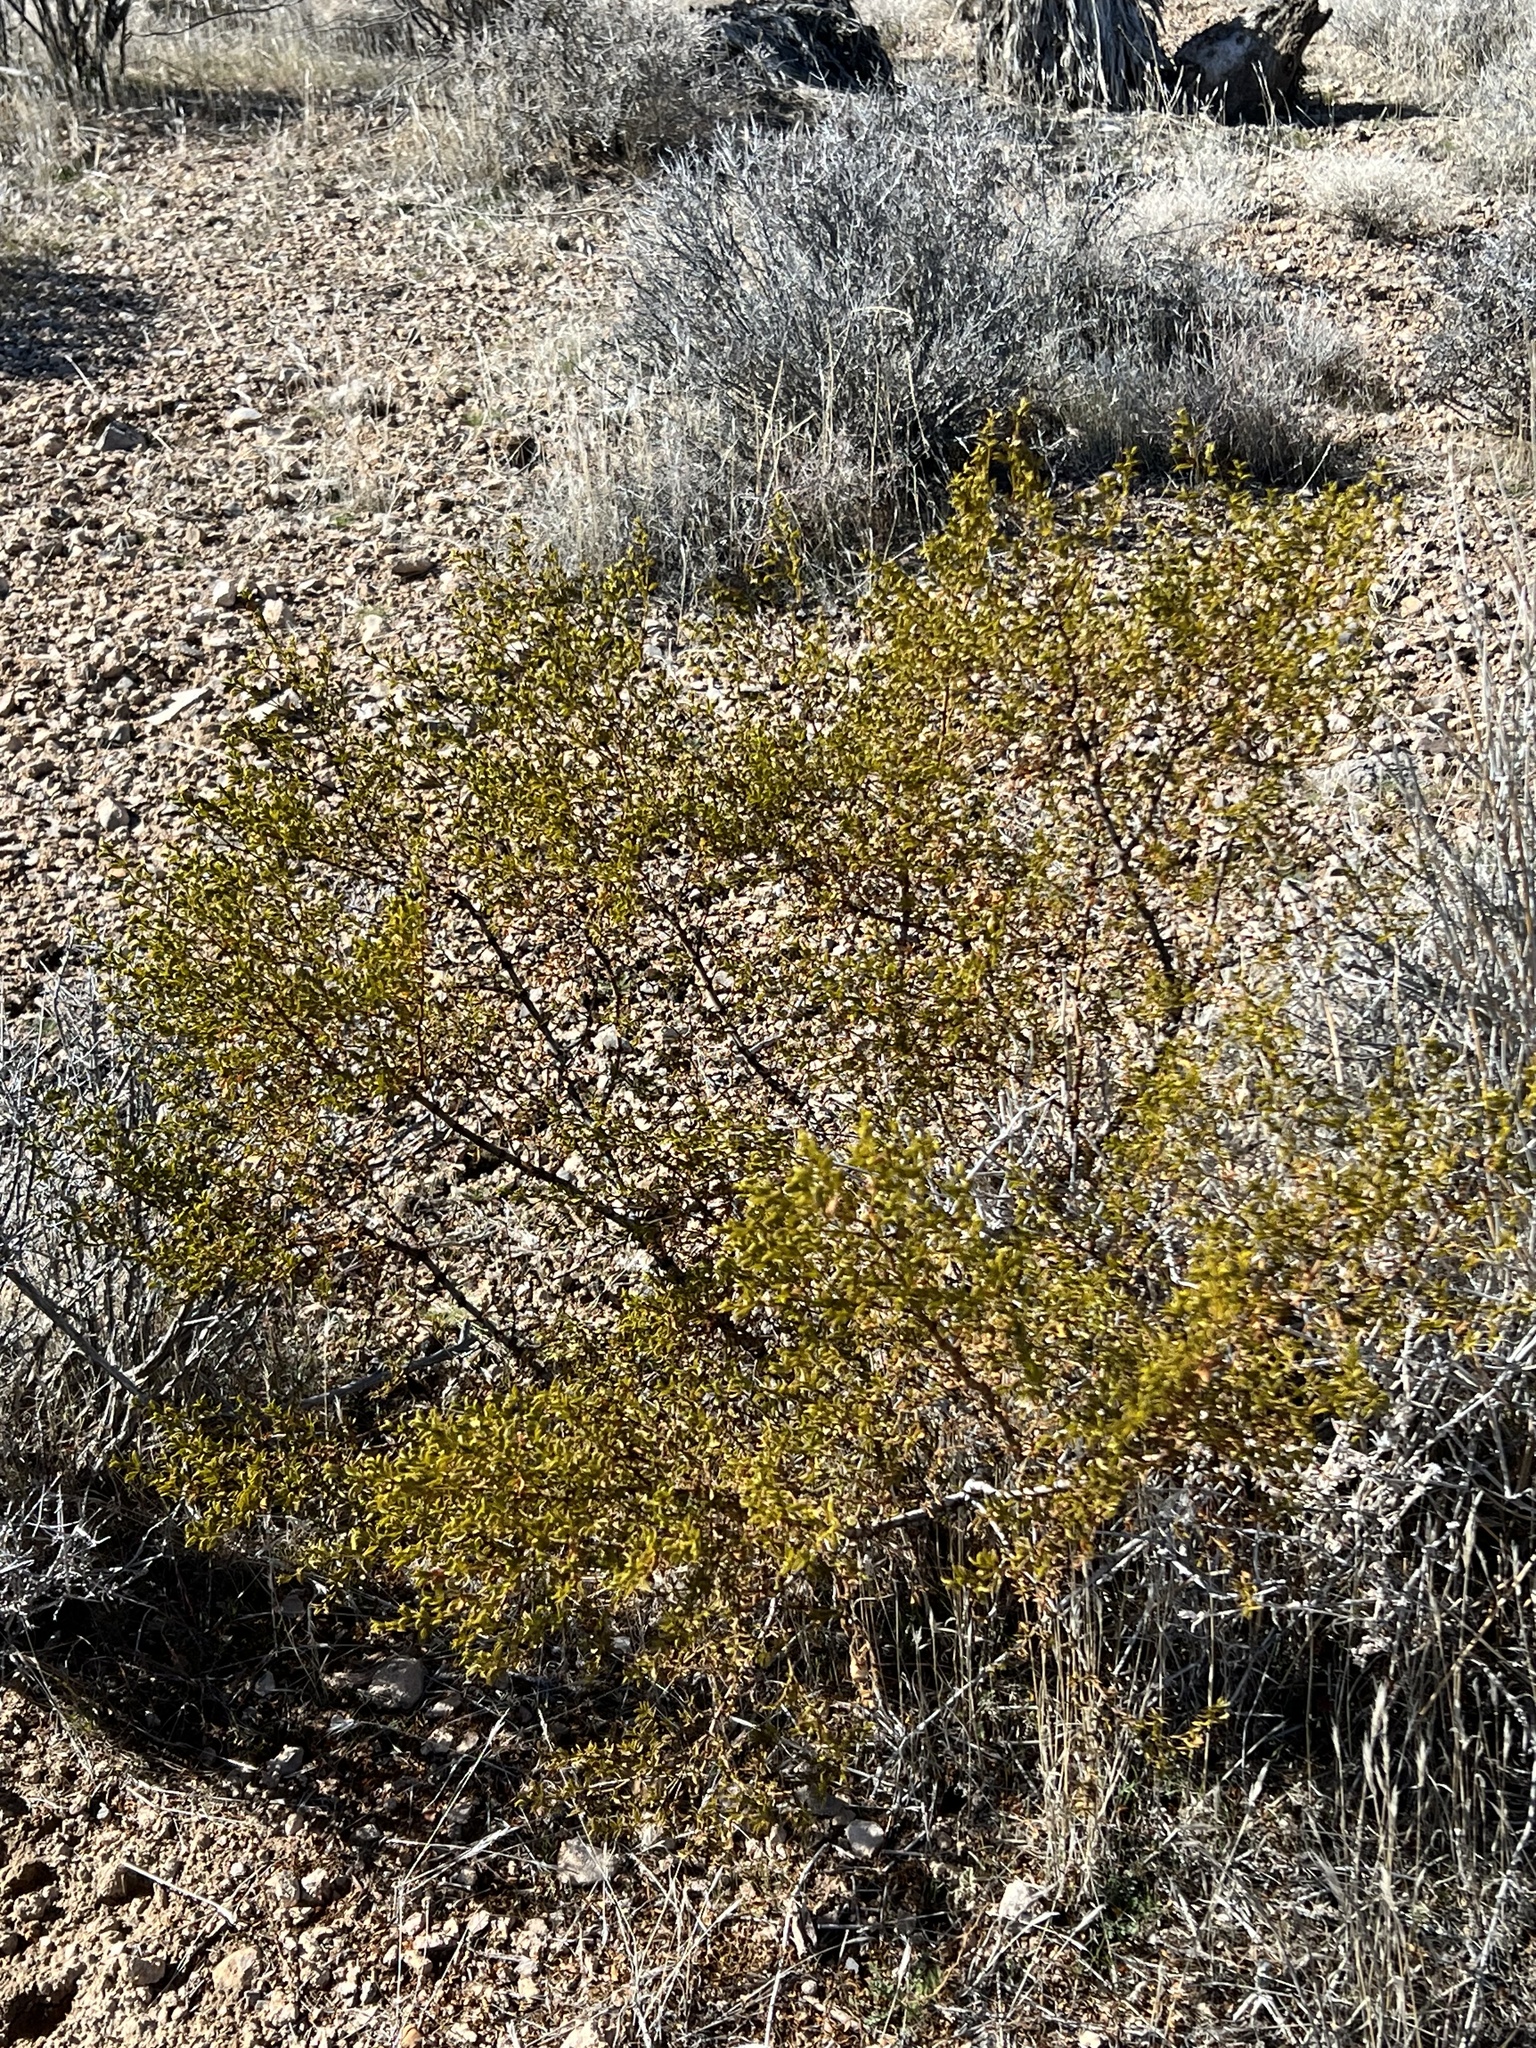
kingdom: Plantae
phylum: Tracheophyta
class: Magnoliopsida
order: Zygophyllales
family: Zygophyllaceae
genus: Larrea
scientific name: Larrea tridentata
